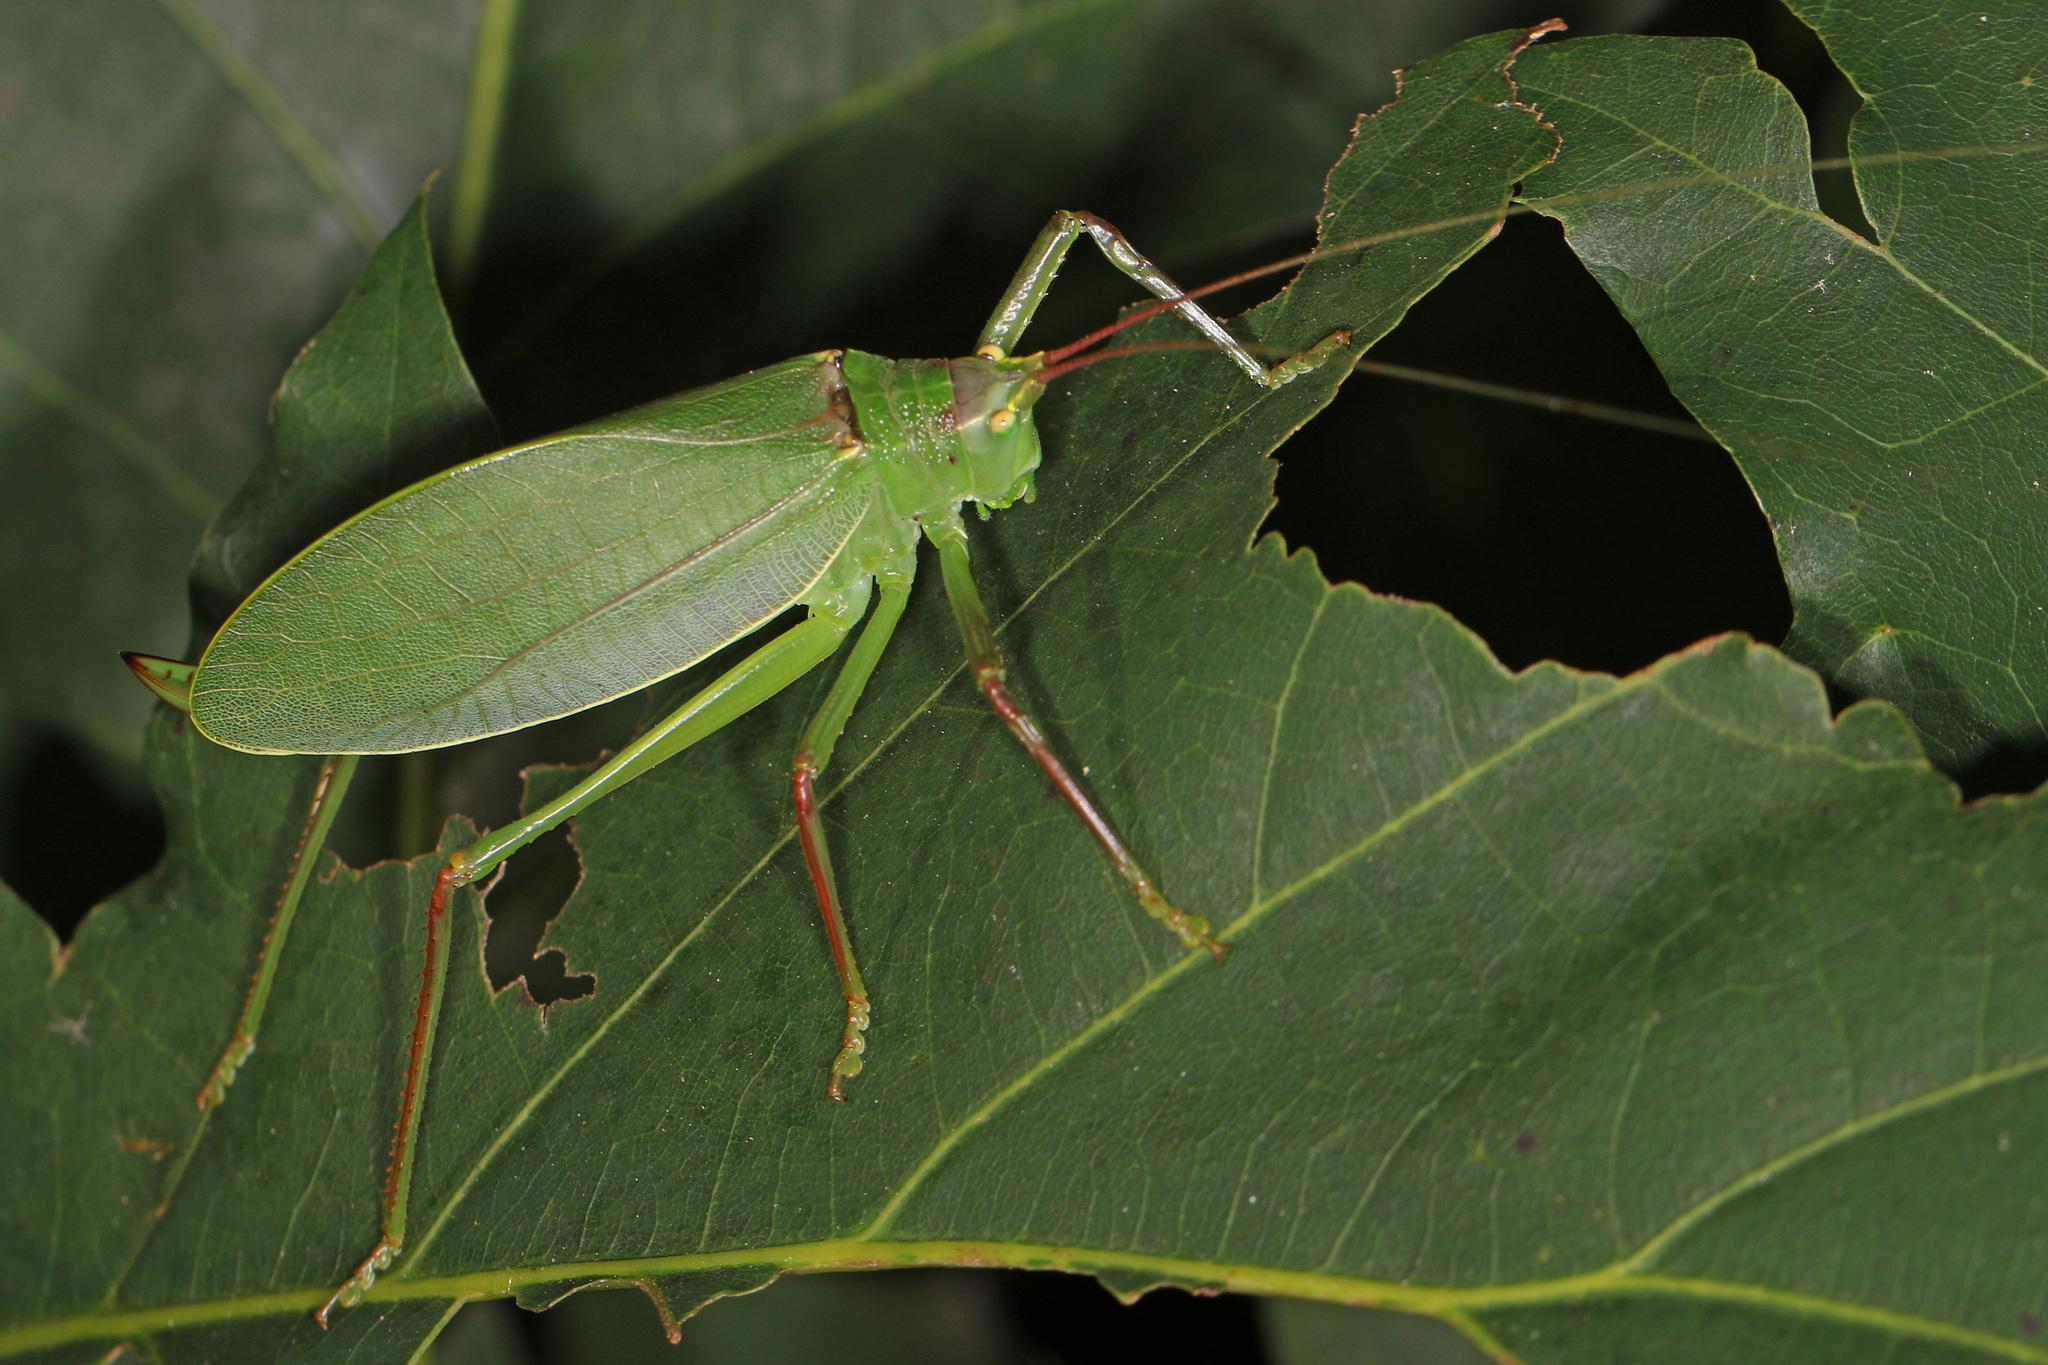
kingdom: Animalia
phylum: Arthropoda
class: Insecta
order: Orthoptera
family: Tettigoniidae
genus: Pterophylla
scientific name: Pterophylla camellifolia
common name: Common true katydid
